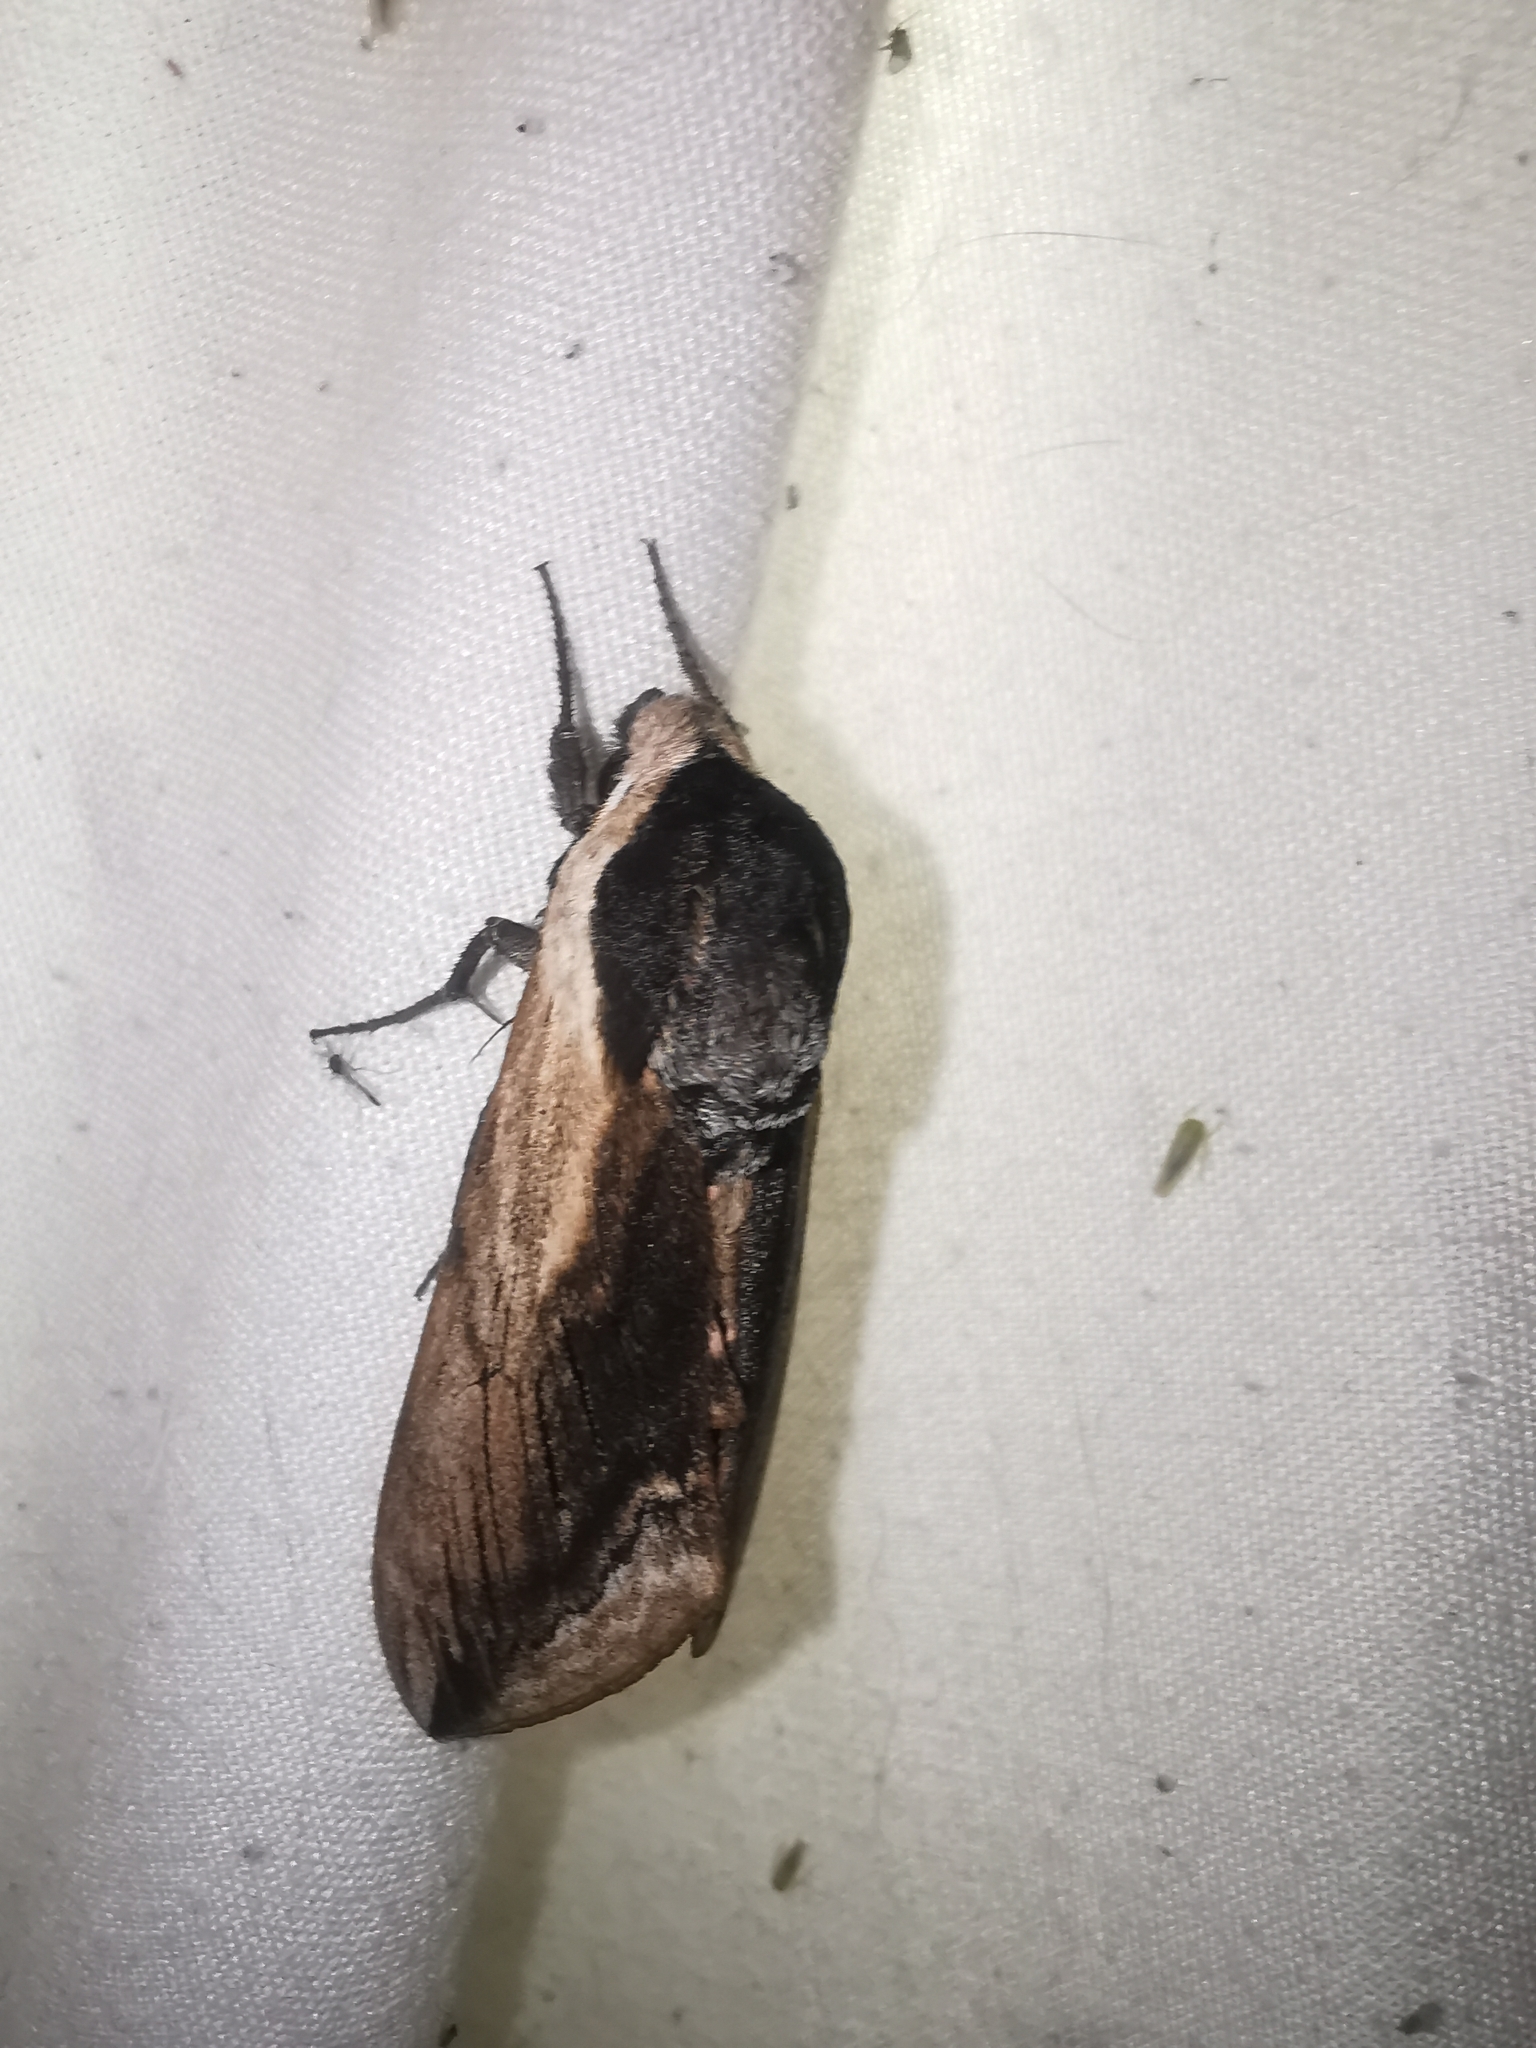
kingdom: Animalia
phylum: Arthropoda
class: Insecta
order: Lepidoptera
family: Sphingidae
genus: Sphinx
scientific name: Sphinx ligustri
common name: Privet hawk-moth
